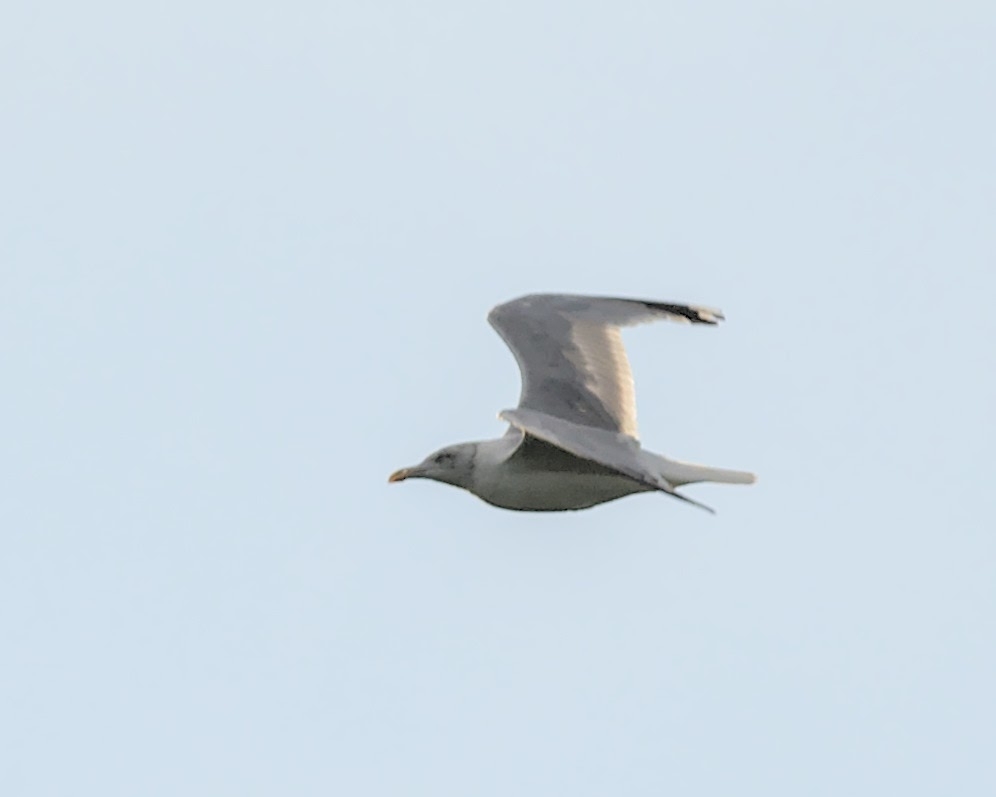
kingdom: Animalia
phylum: Chordata
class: Aves
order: Charadriiformes
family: Laridae
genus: Larus
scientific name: Larus argentatus
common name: Herring gull
